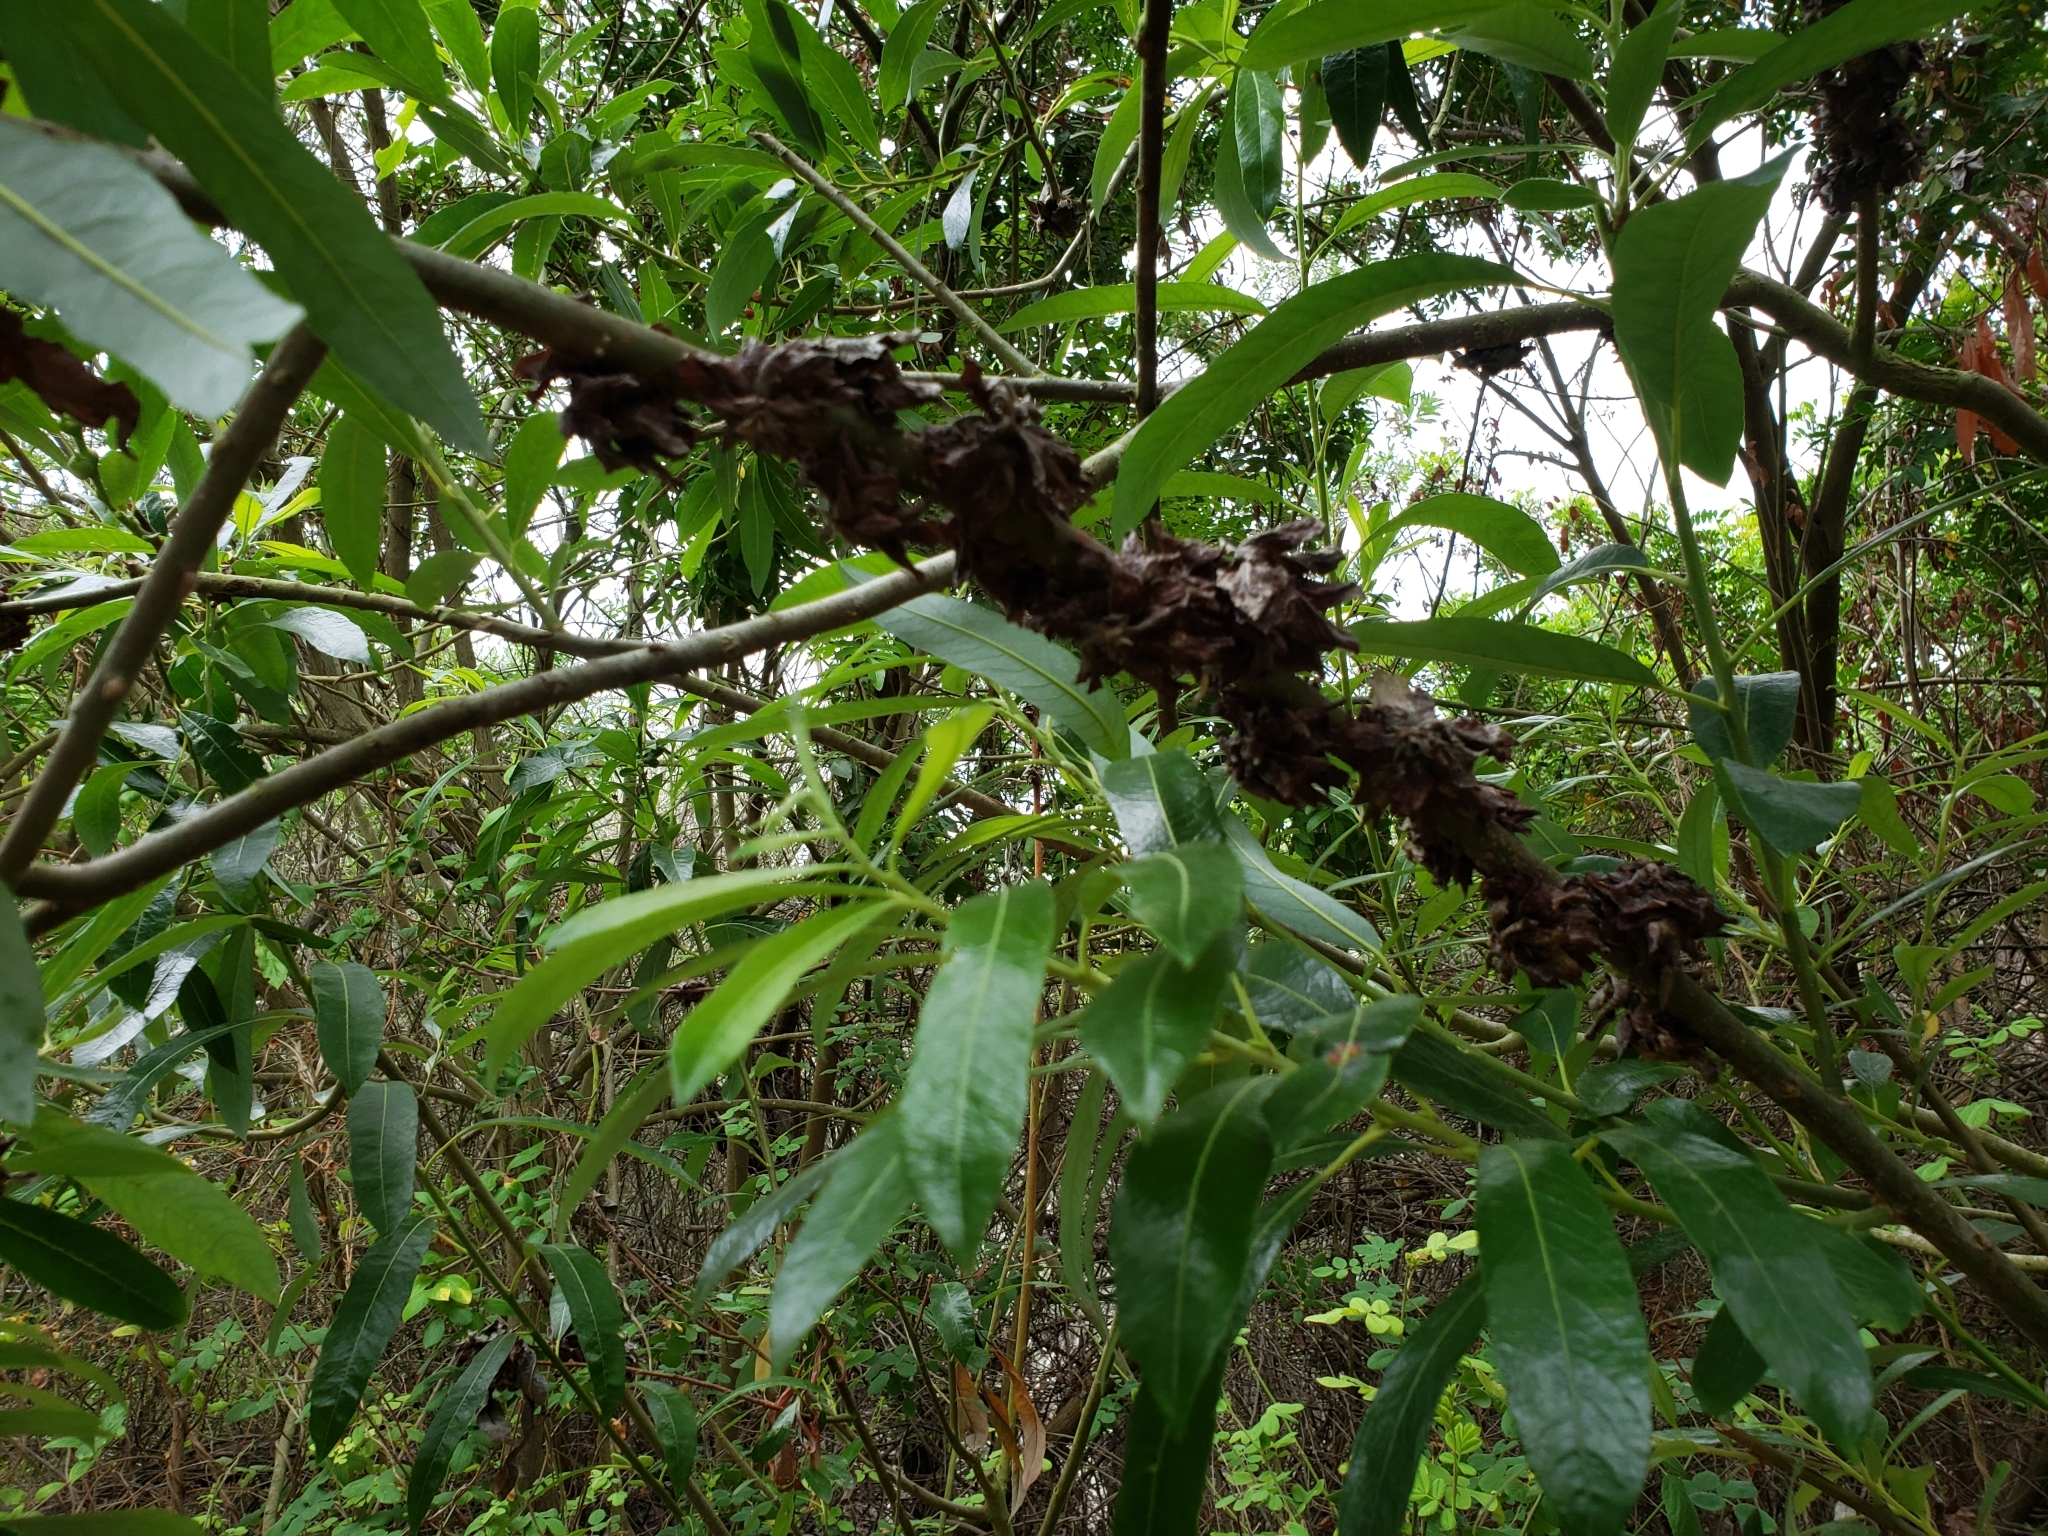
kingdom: Plantae
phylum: Tracheophyta
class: Magnoliopsida
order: Dipsacales
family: Caprifoliaceae
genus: Lonicera
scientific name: Lonicera japonica
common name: Japanese honeysuckle
